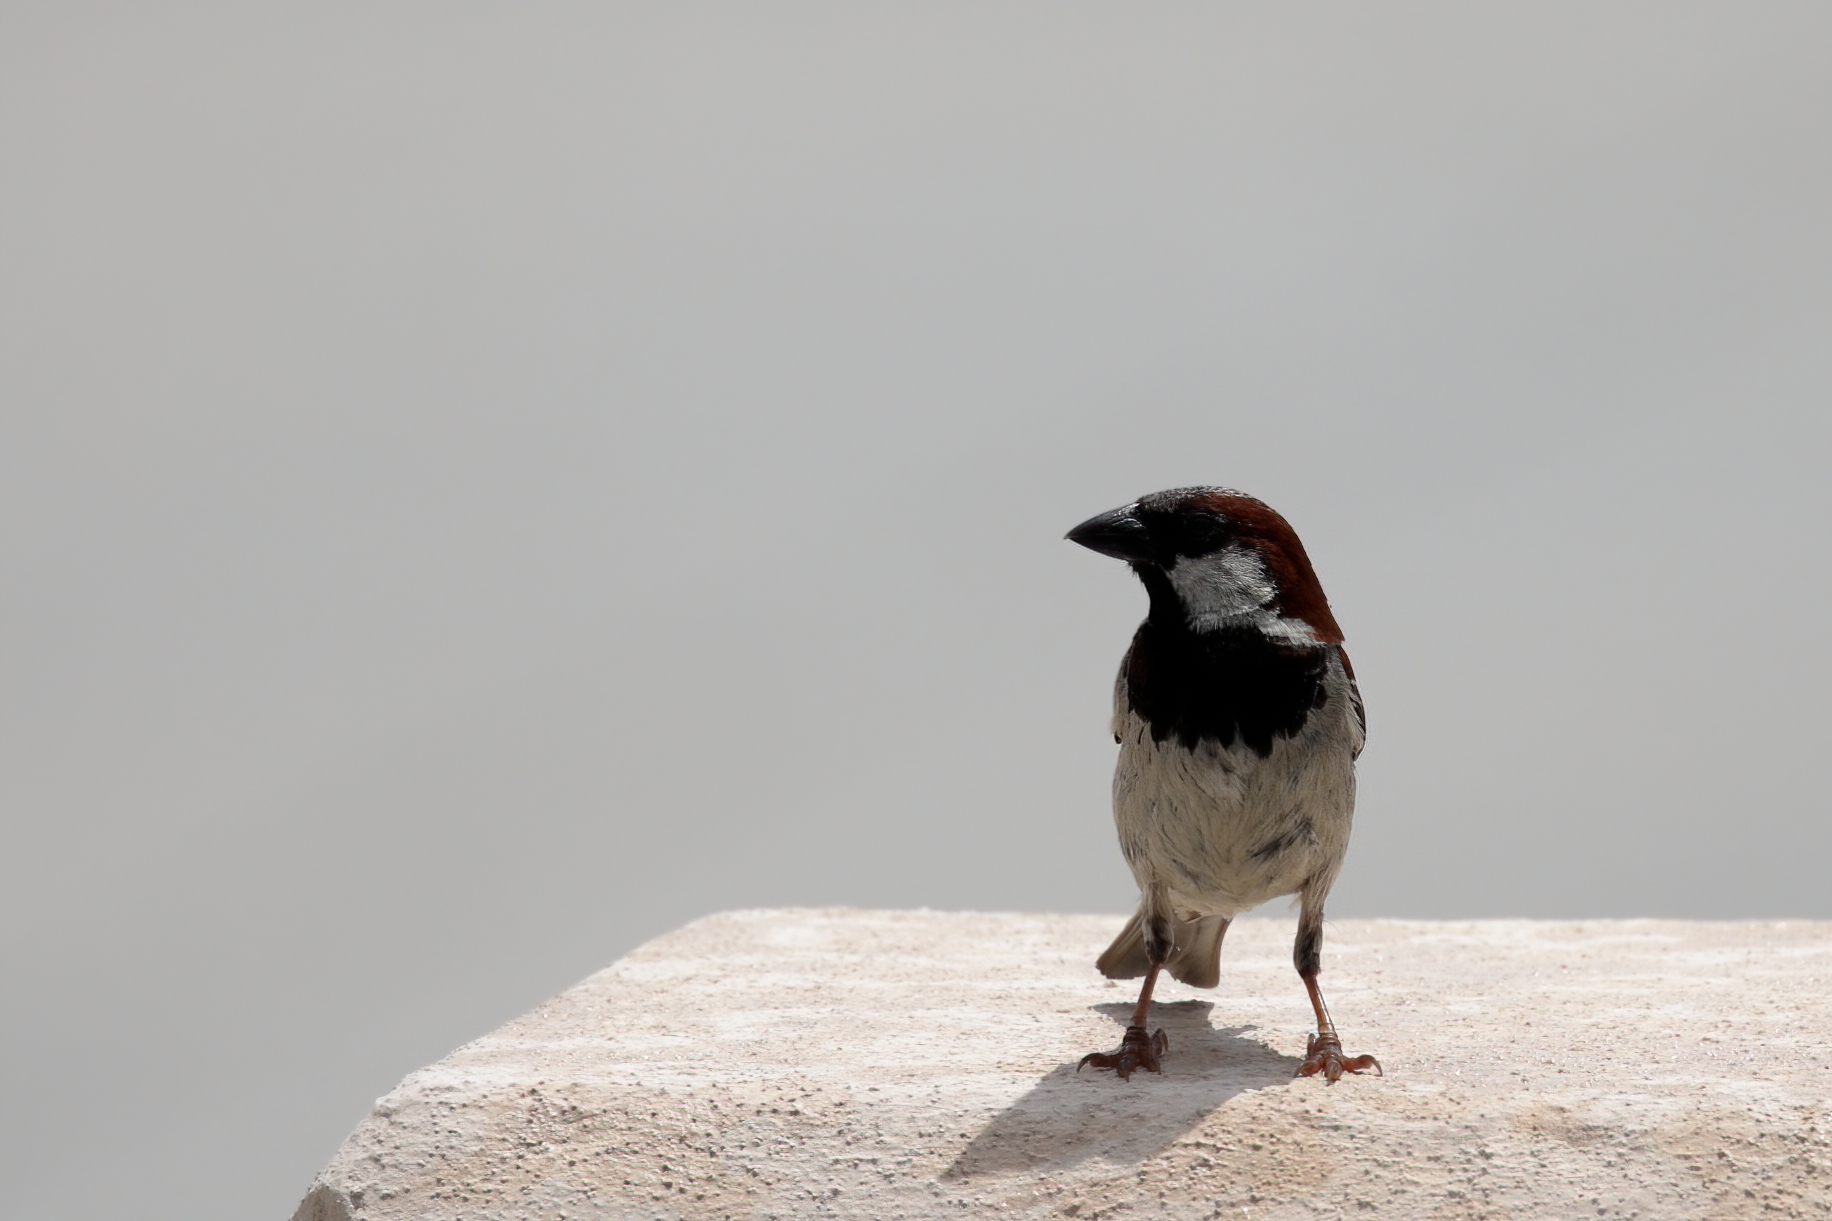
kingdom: Animalia
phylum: Chordata
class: Aves
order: Passeriformes
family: Passeridae
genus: Passer
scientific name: Passer domesticus
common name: House sparrow
